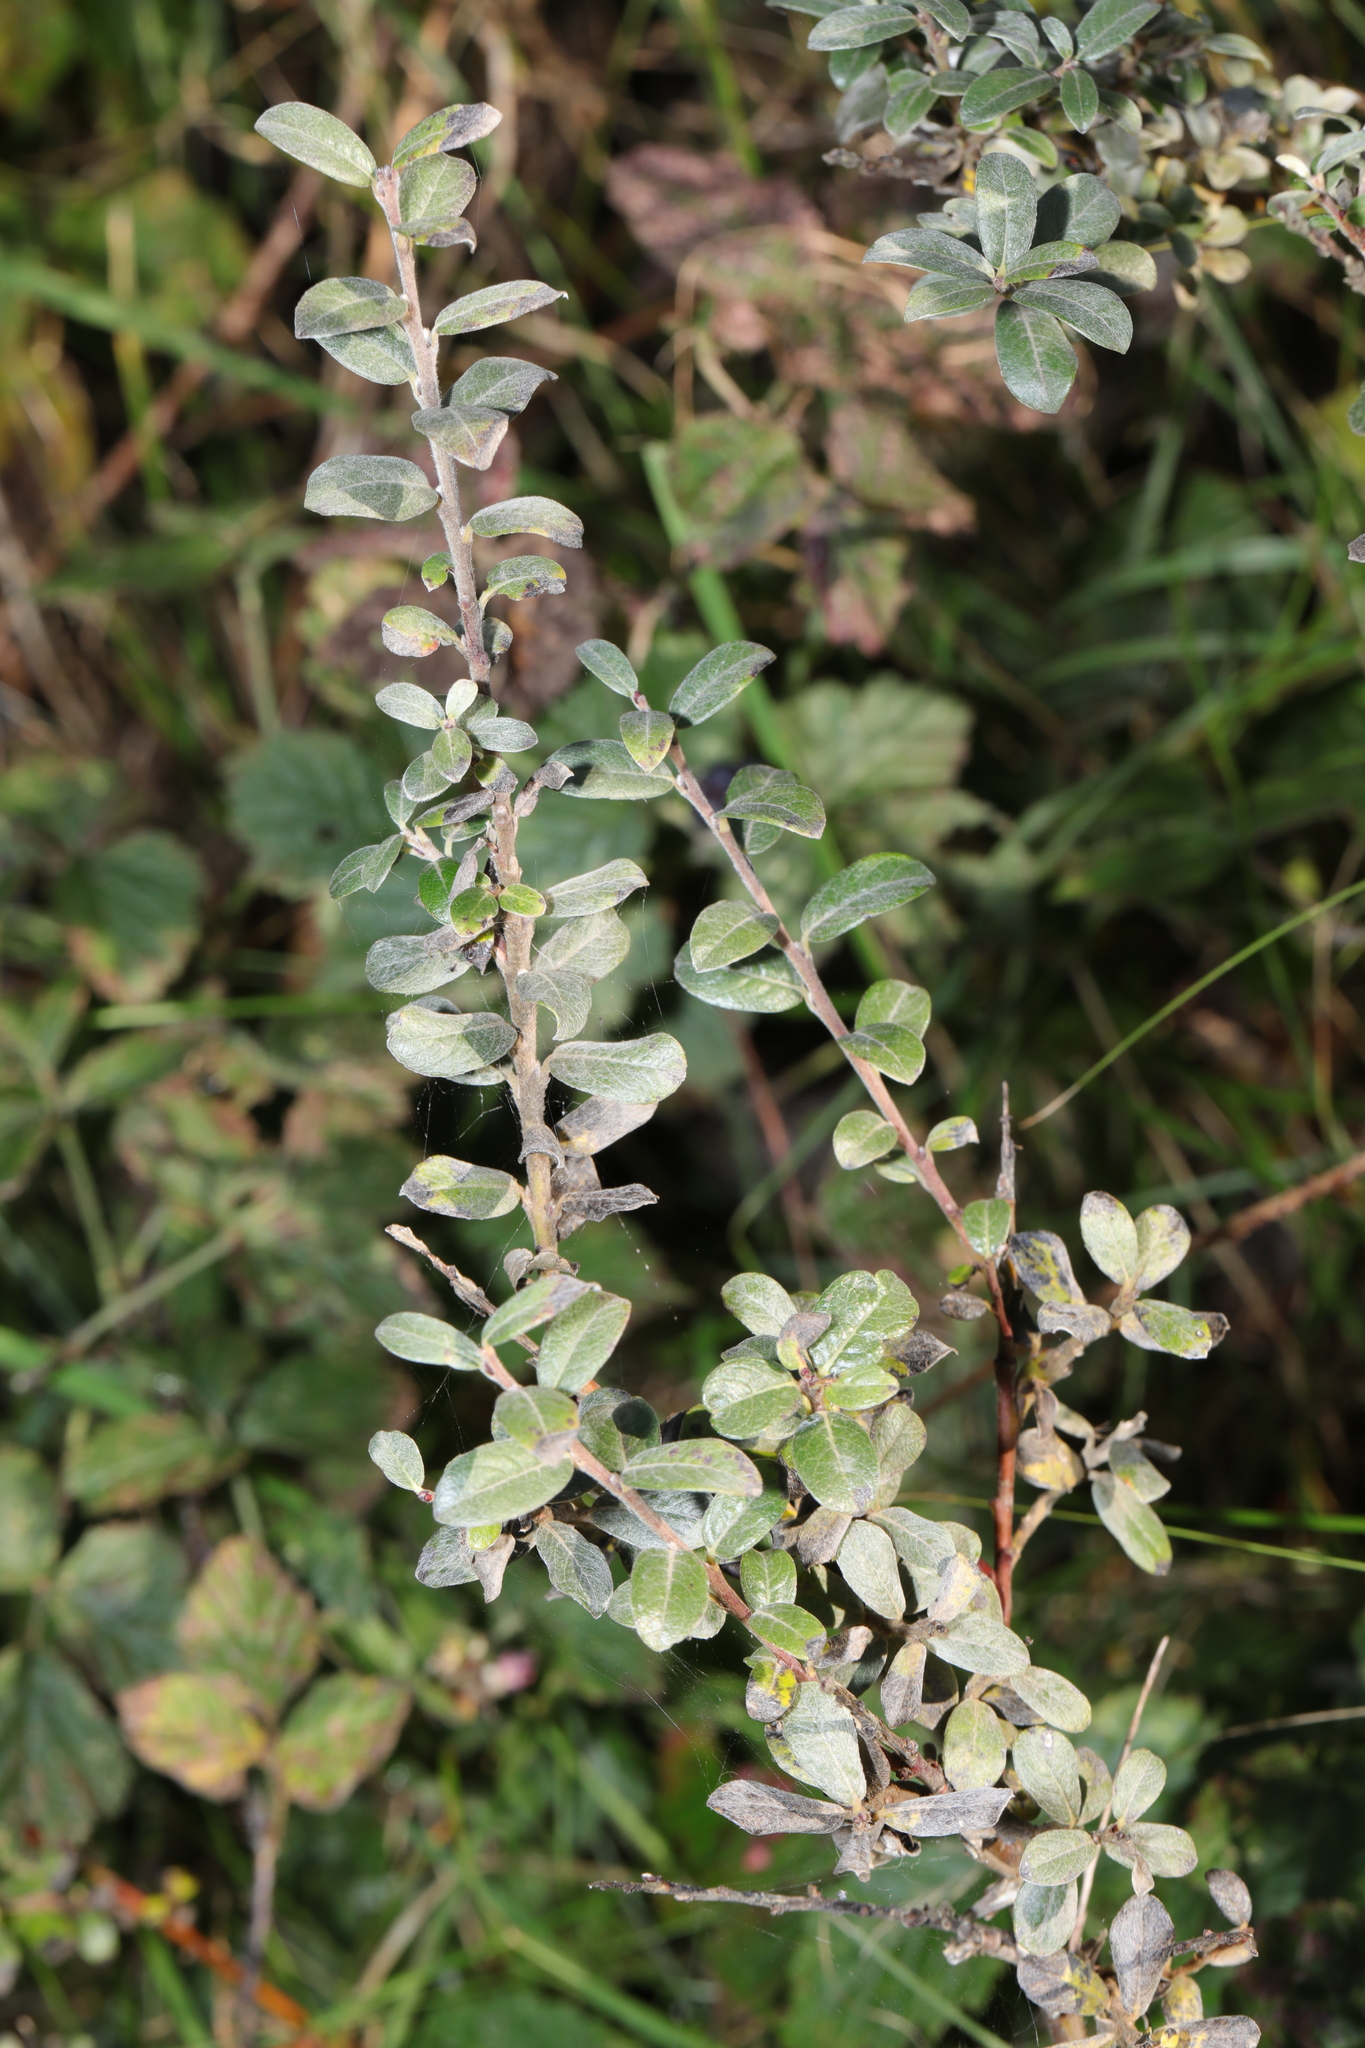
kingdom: Plantae
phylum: Tracheophyta
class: Magnoliopsida
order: Malpighiales
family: Salicaceae
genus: Salix
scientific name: Salix repens
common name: Creeping willow
